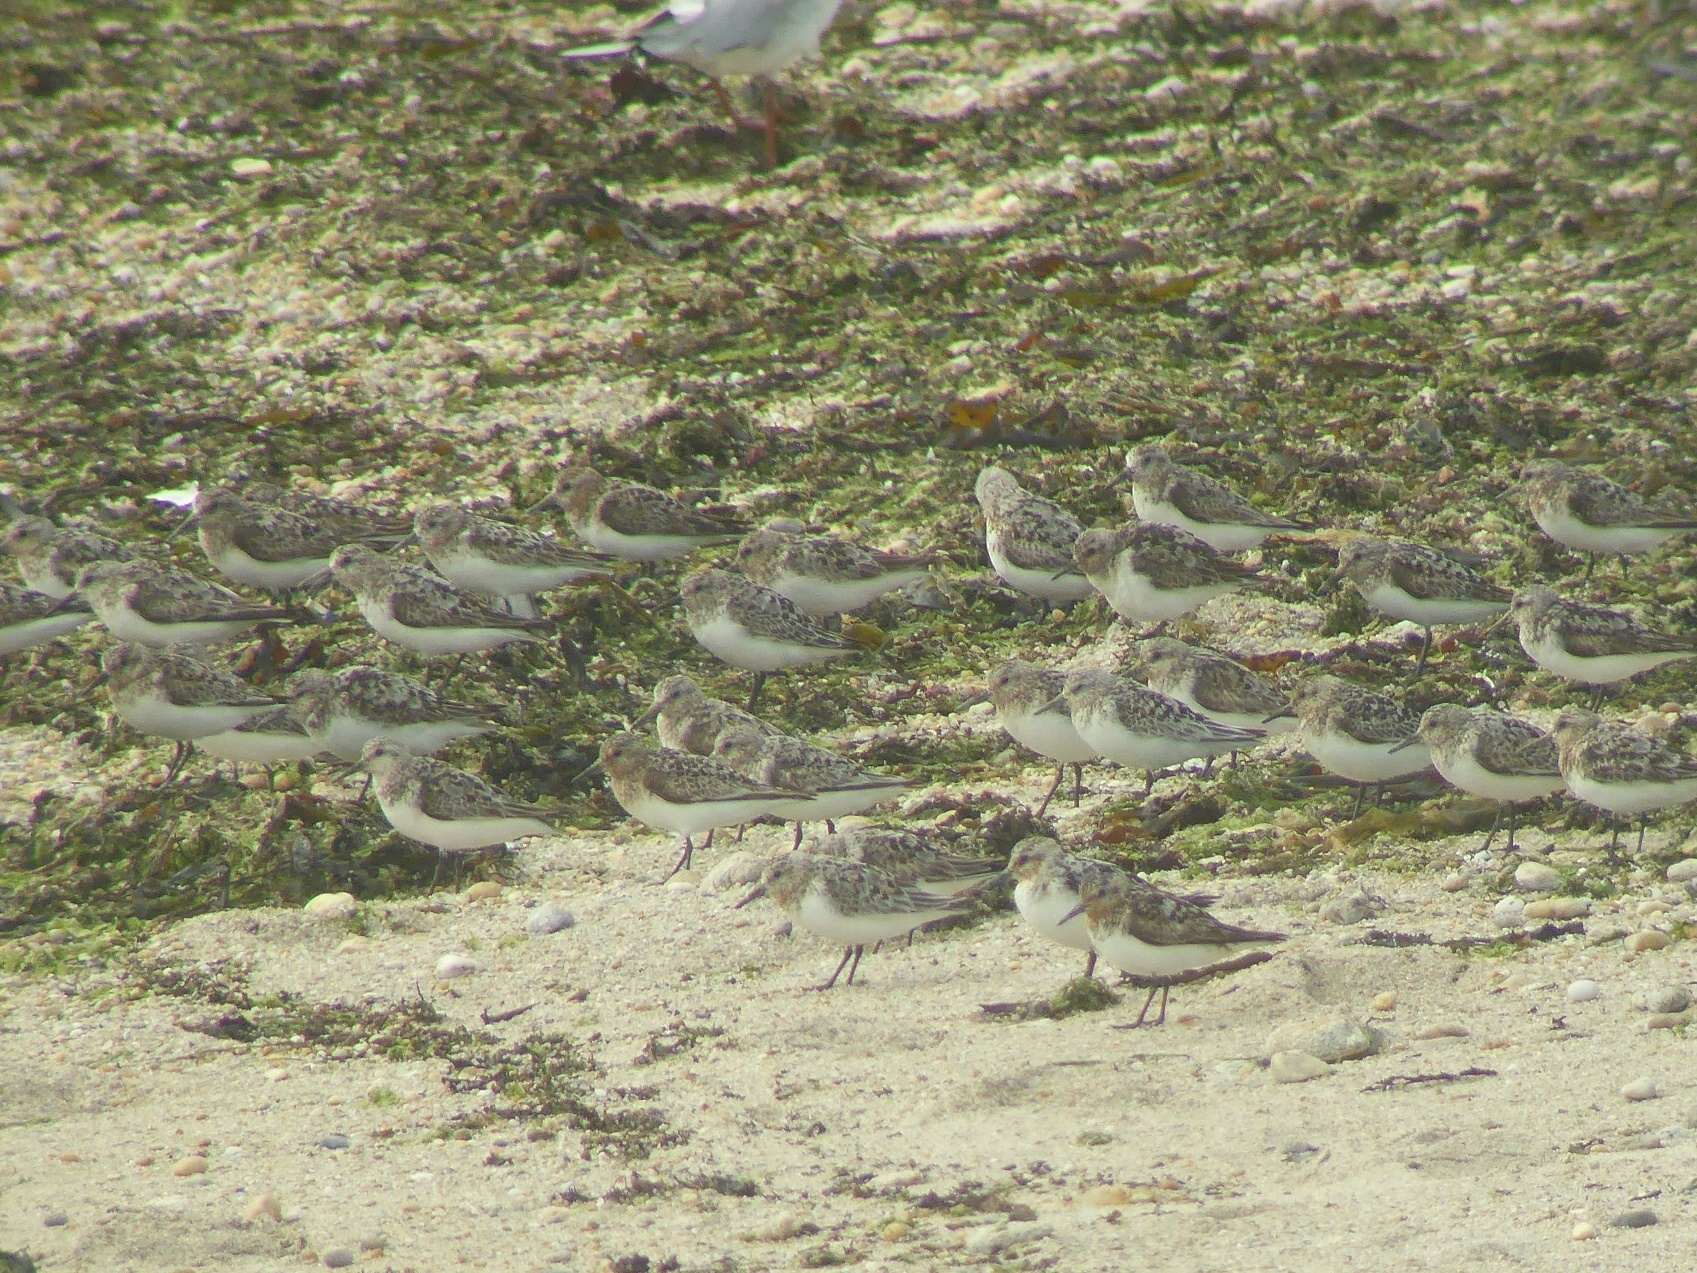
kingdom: Animalia
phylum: Chordata
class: Aves
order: Charadriiformes
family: Scolopacidae
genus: Calidris
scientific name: Calidris alba
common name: Sanderling
